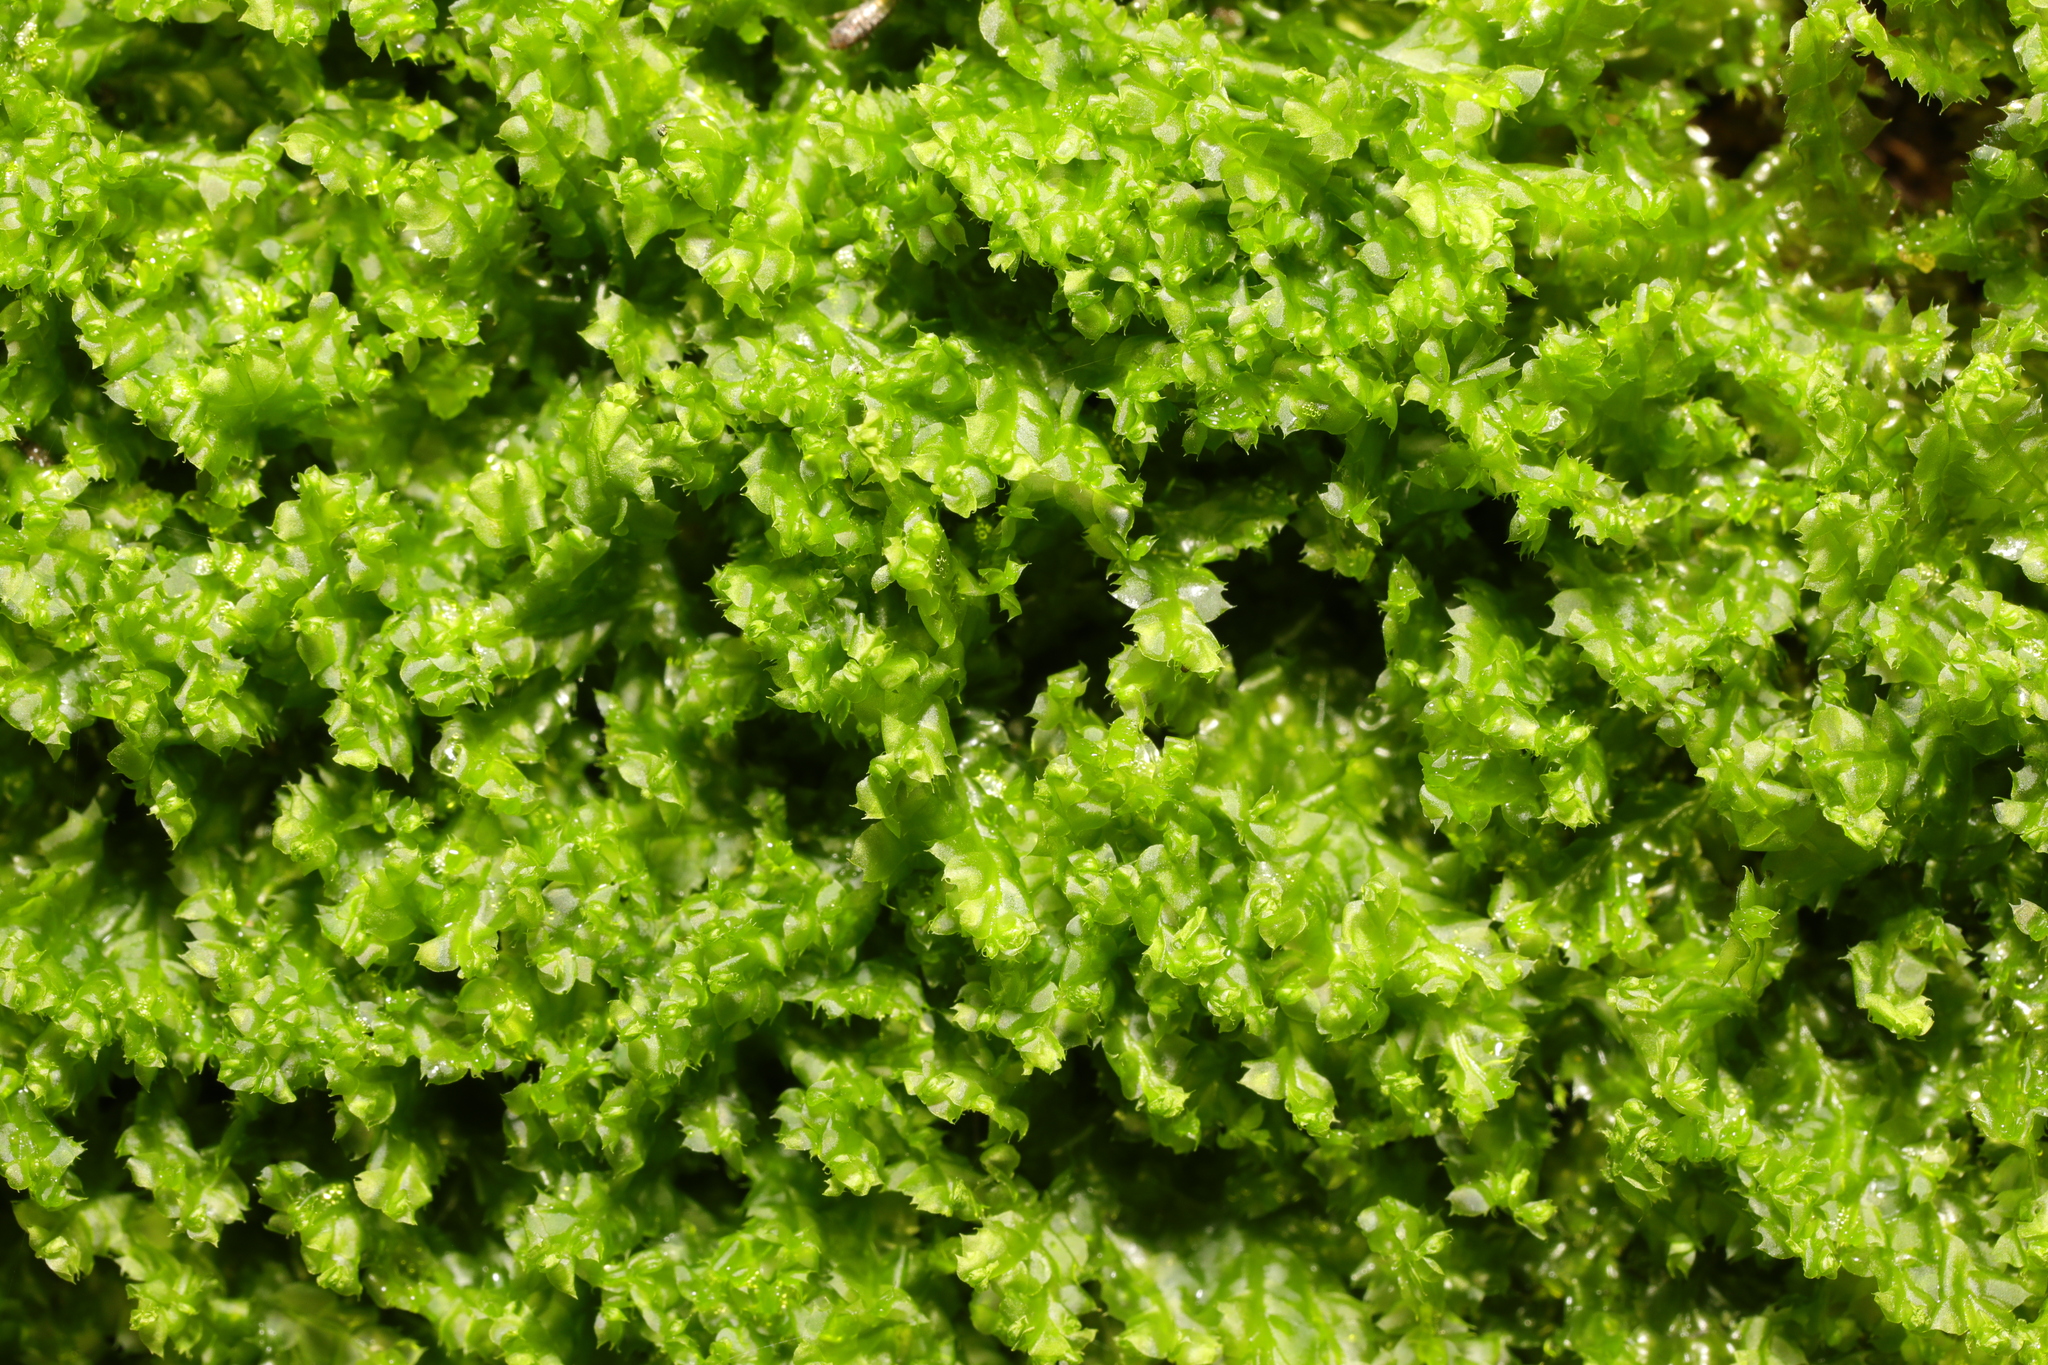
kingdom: Plantae
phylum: Marchantiophyta
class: Jungermanniopsida
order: Jungermanniales
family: Lophocoleaceae
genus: Lophocolea
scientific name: Lophocolea bidentata
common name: Bifid crestwort
